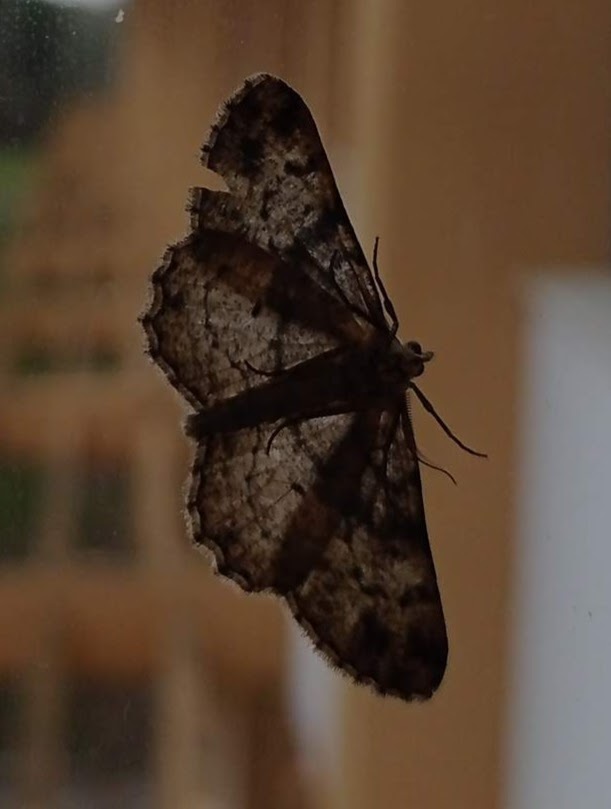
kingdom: Animalia
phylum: Arthropoda
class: Insecta
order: Lepidoptera
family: Geometridae
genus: Peribatodes
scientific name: Peribatodes rhomboidaria
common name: Willow beauty
